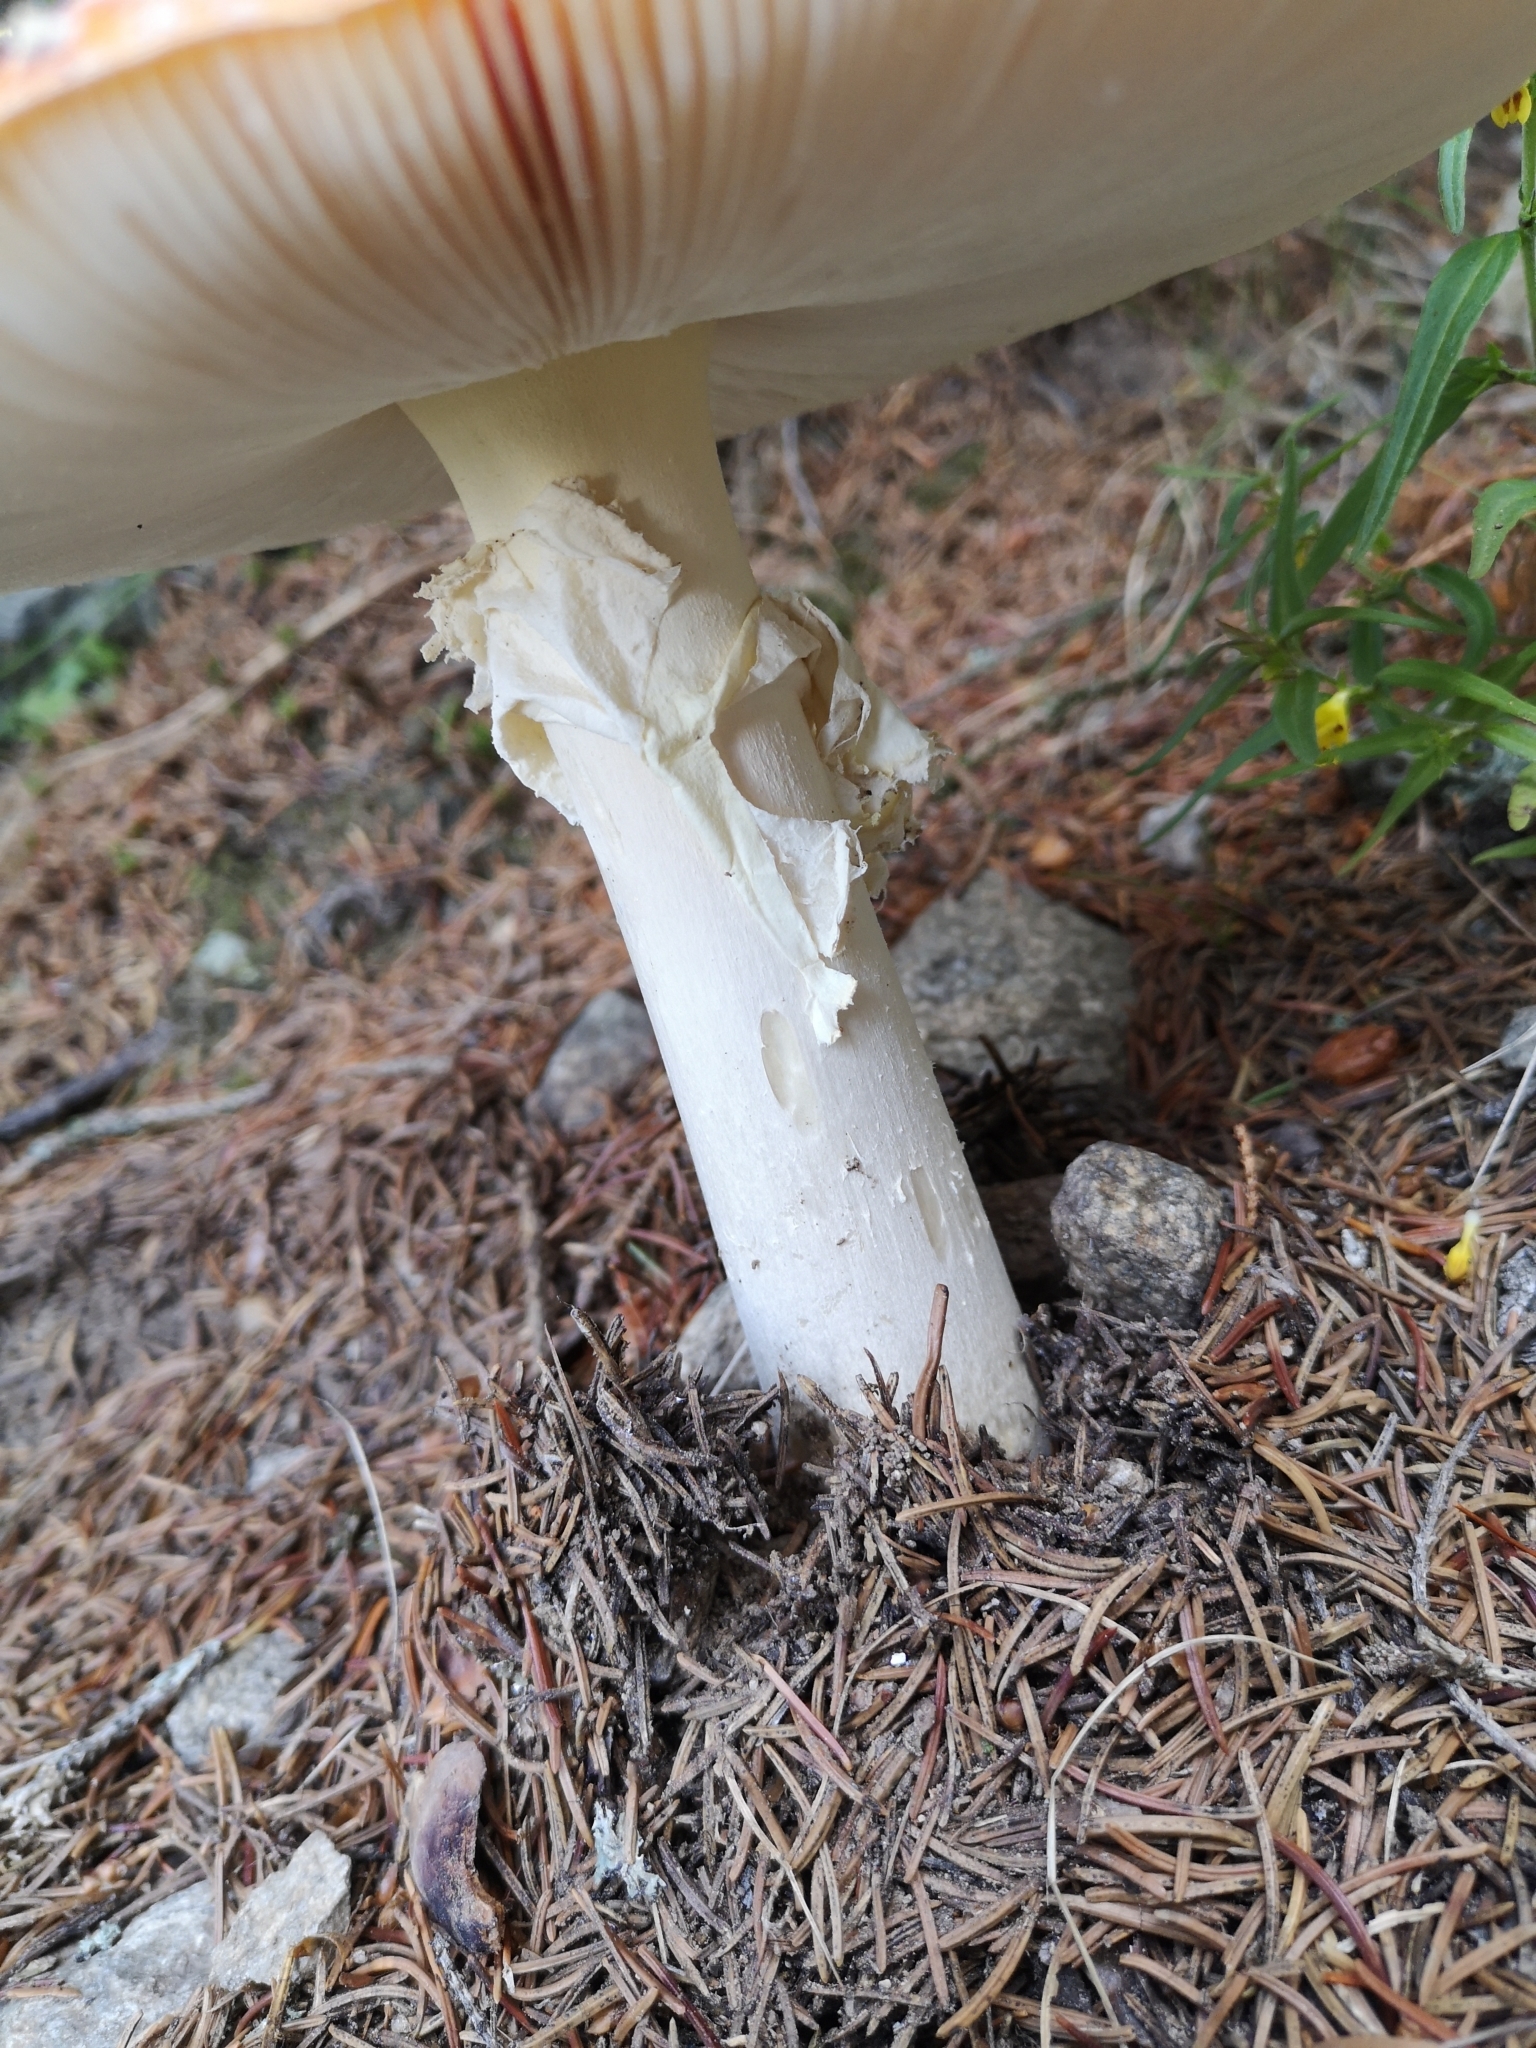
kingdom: Fungi
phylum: Basidiomycota
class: Agaricomycetes
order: Agaricales
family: Amanitaceae
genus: Amanita
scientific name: Amanita muscaria
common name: Fly agaric
